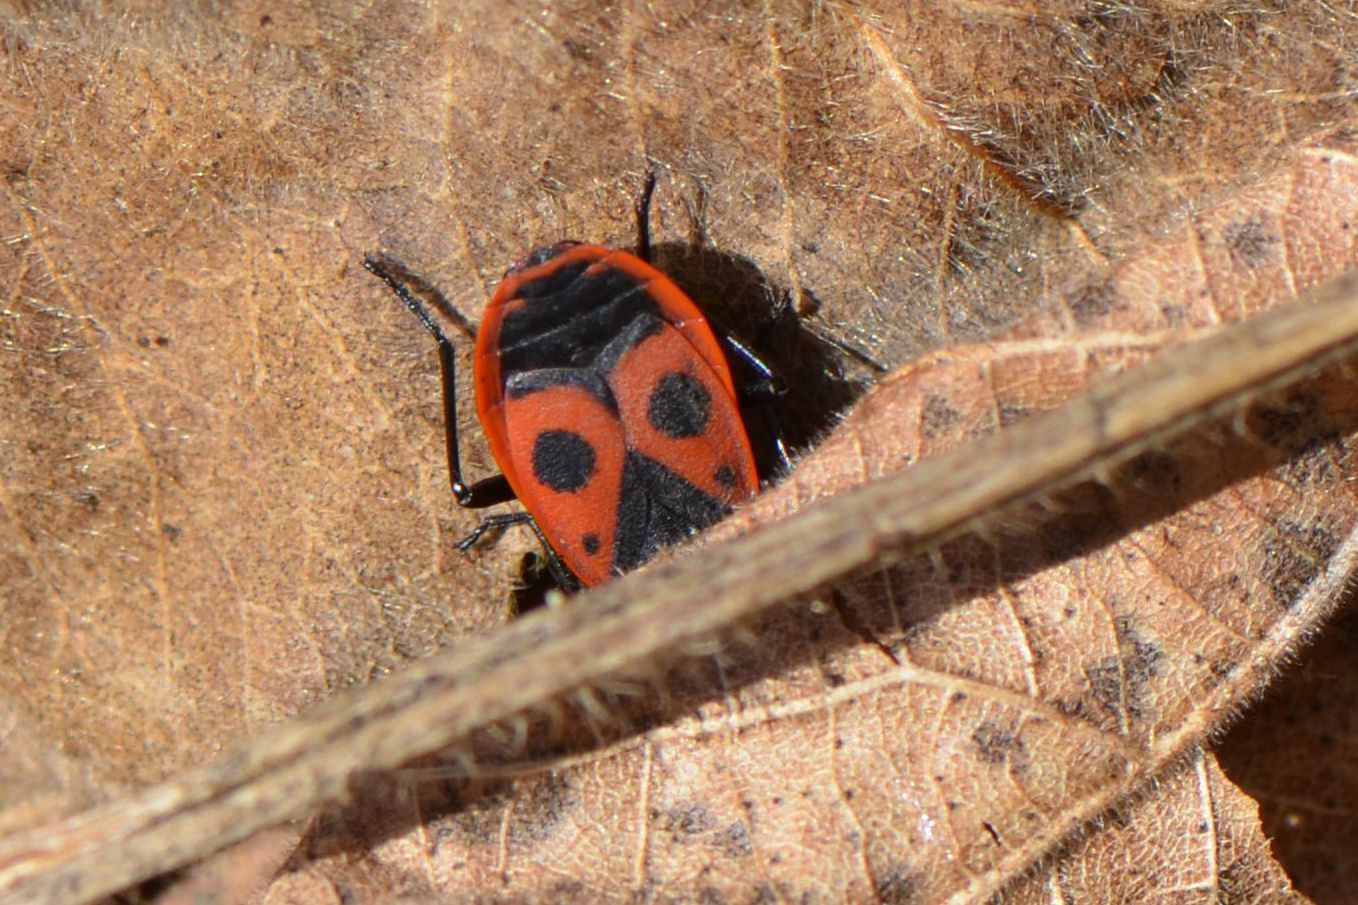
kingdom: Animalia
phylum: Arthropoda
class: Insecta
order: Hemiptera
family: Pyrrhocoridae
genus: Pyrrhocoris
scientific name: Pyrrhocoris apterus
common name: Firebug
